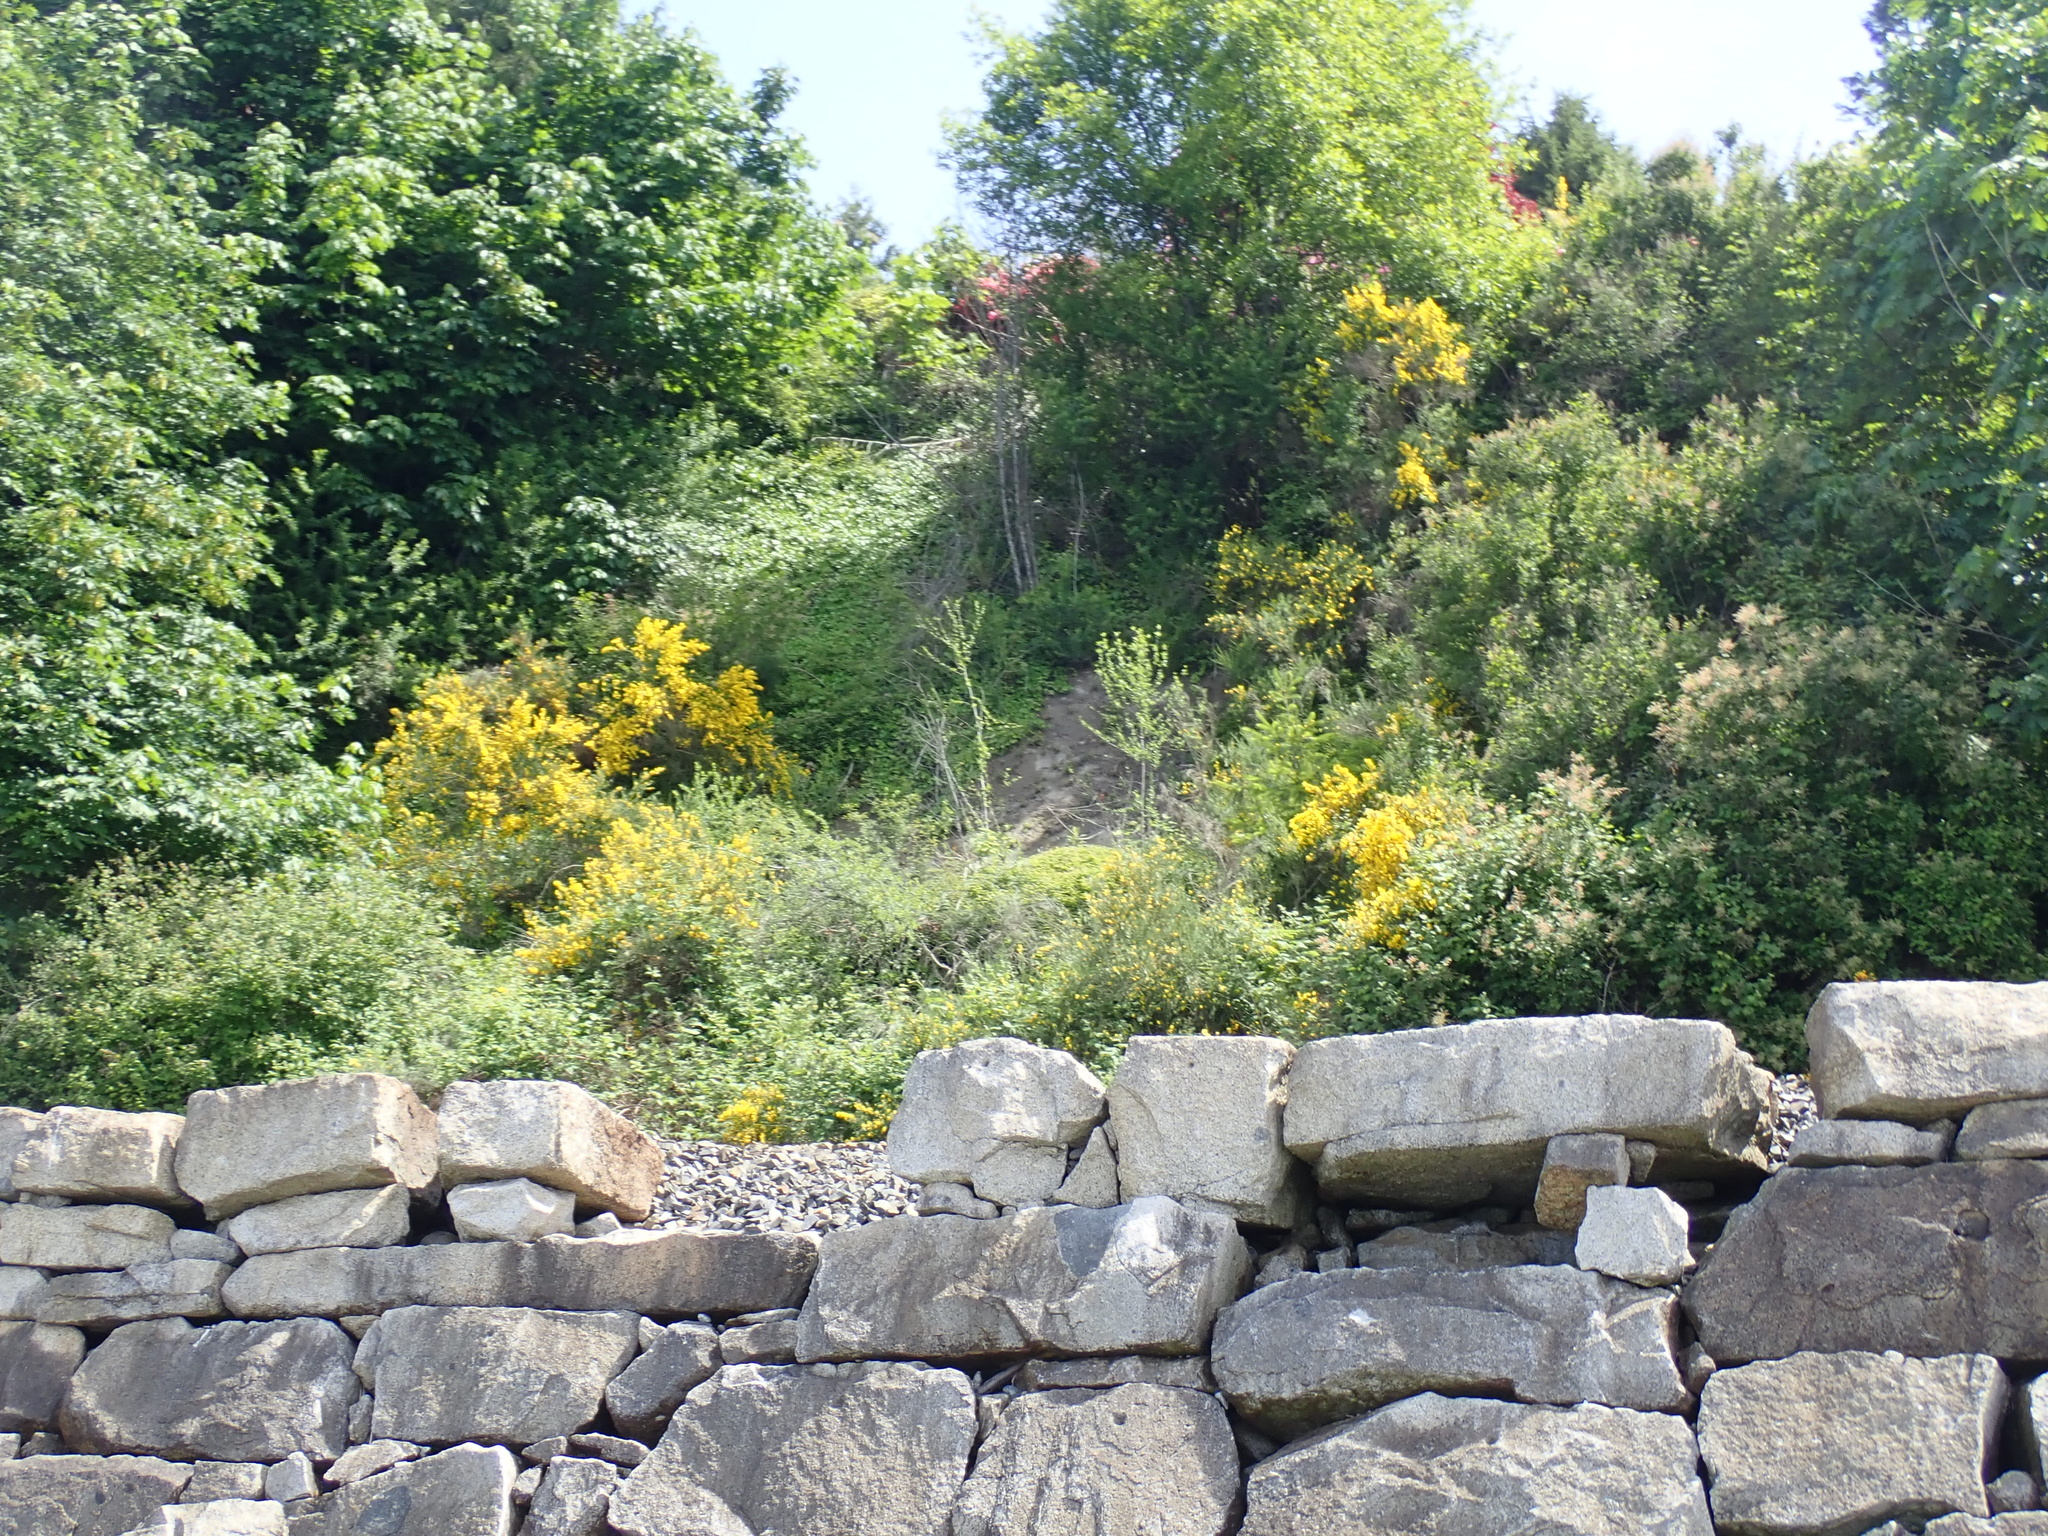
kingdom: Plantae
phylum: Tracheophyta
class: Magnoliopsida
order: Fabales
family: Fabaceae
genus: Cytisus
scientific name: Cytisus scoparius
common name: Scotch broom
